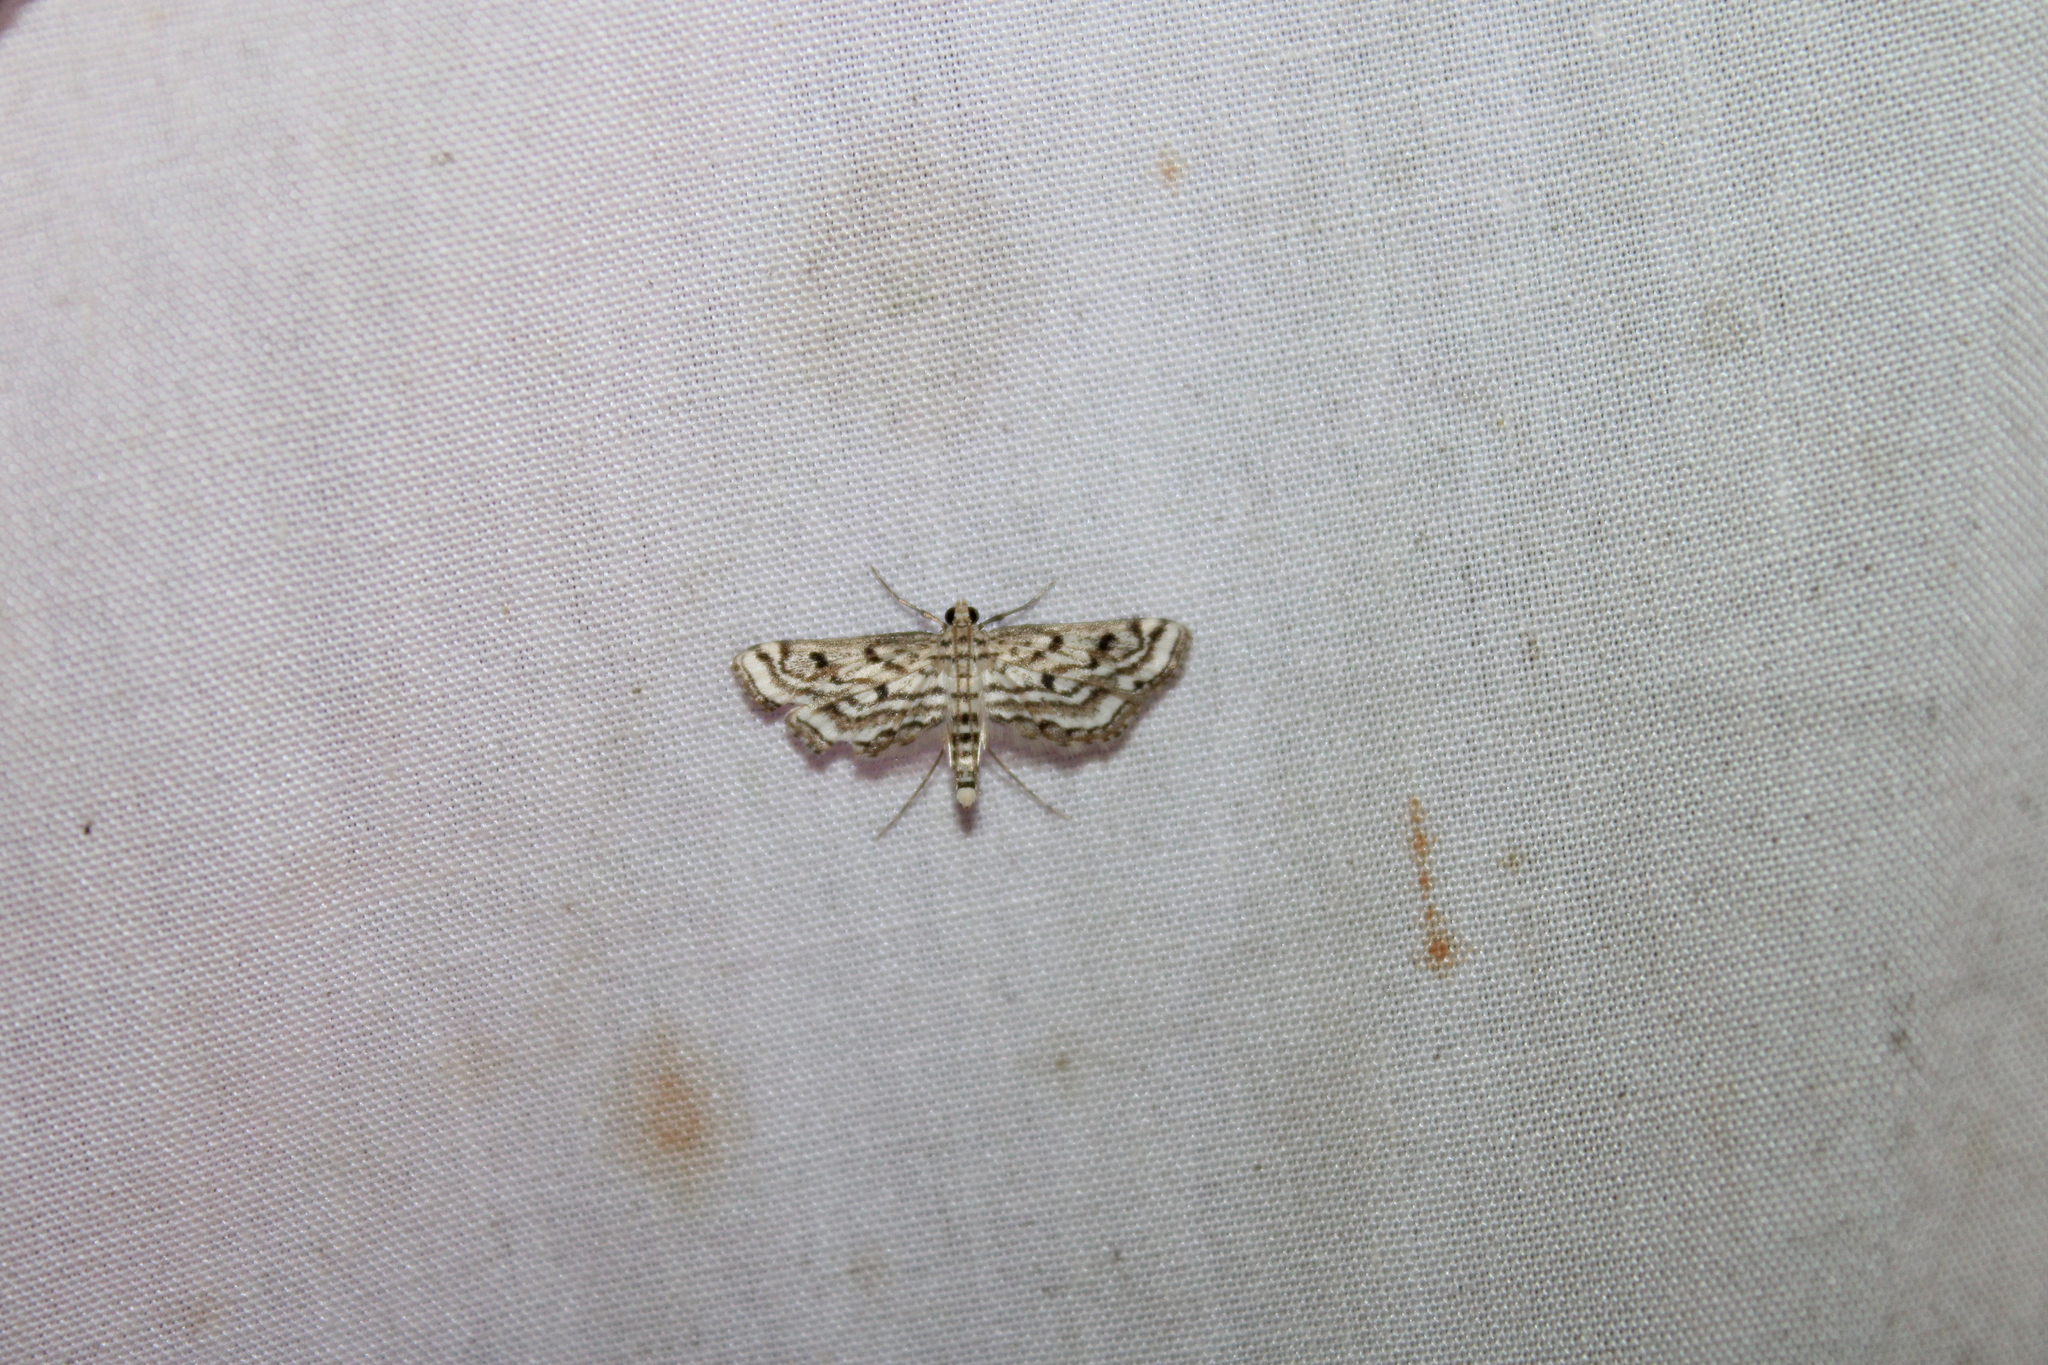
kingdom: Animalia
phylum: Arthropoda
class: Insecta
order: Lepidoptera
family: Crambidae
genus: Parapoynx
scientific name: Parapoynx allionealis
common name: Bladderwort casemaker
